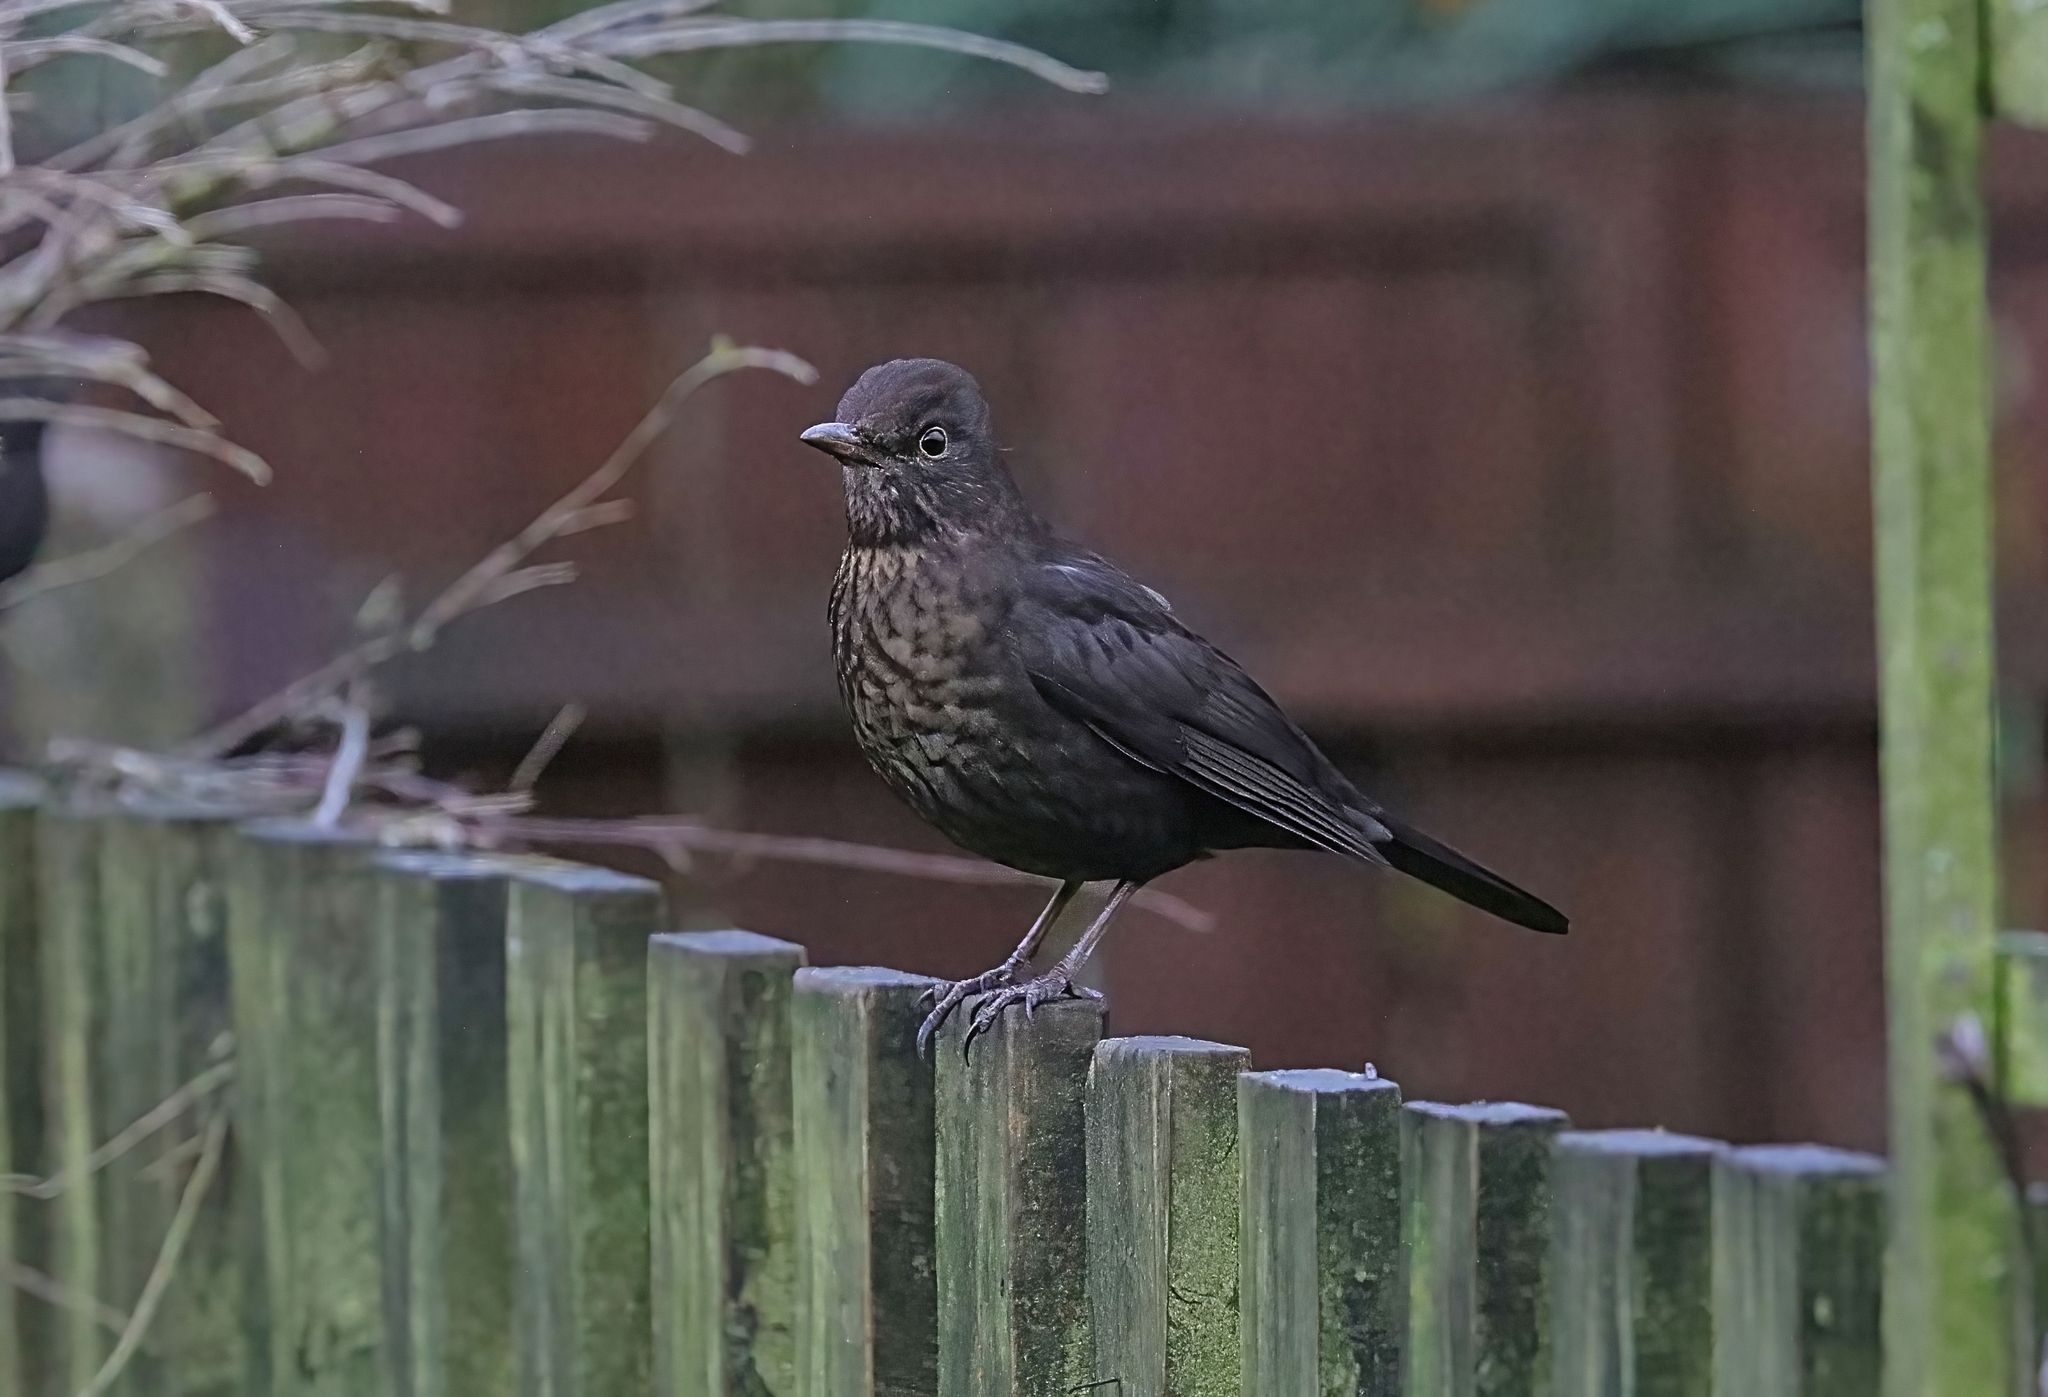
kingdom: Animalia
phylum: Chordata
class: Aves
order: Passeriformes
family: Turdidae
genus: Turdus
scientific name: Turdus merula
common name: Common blackbird
